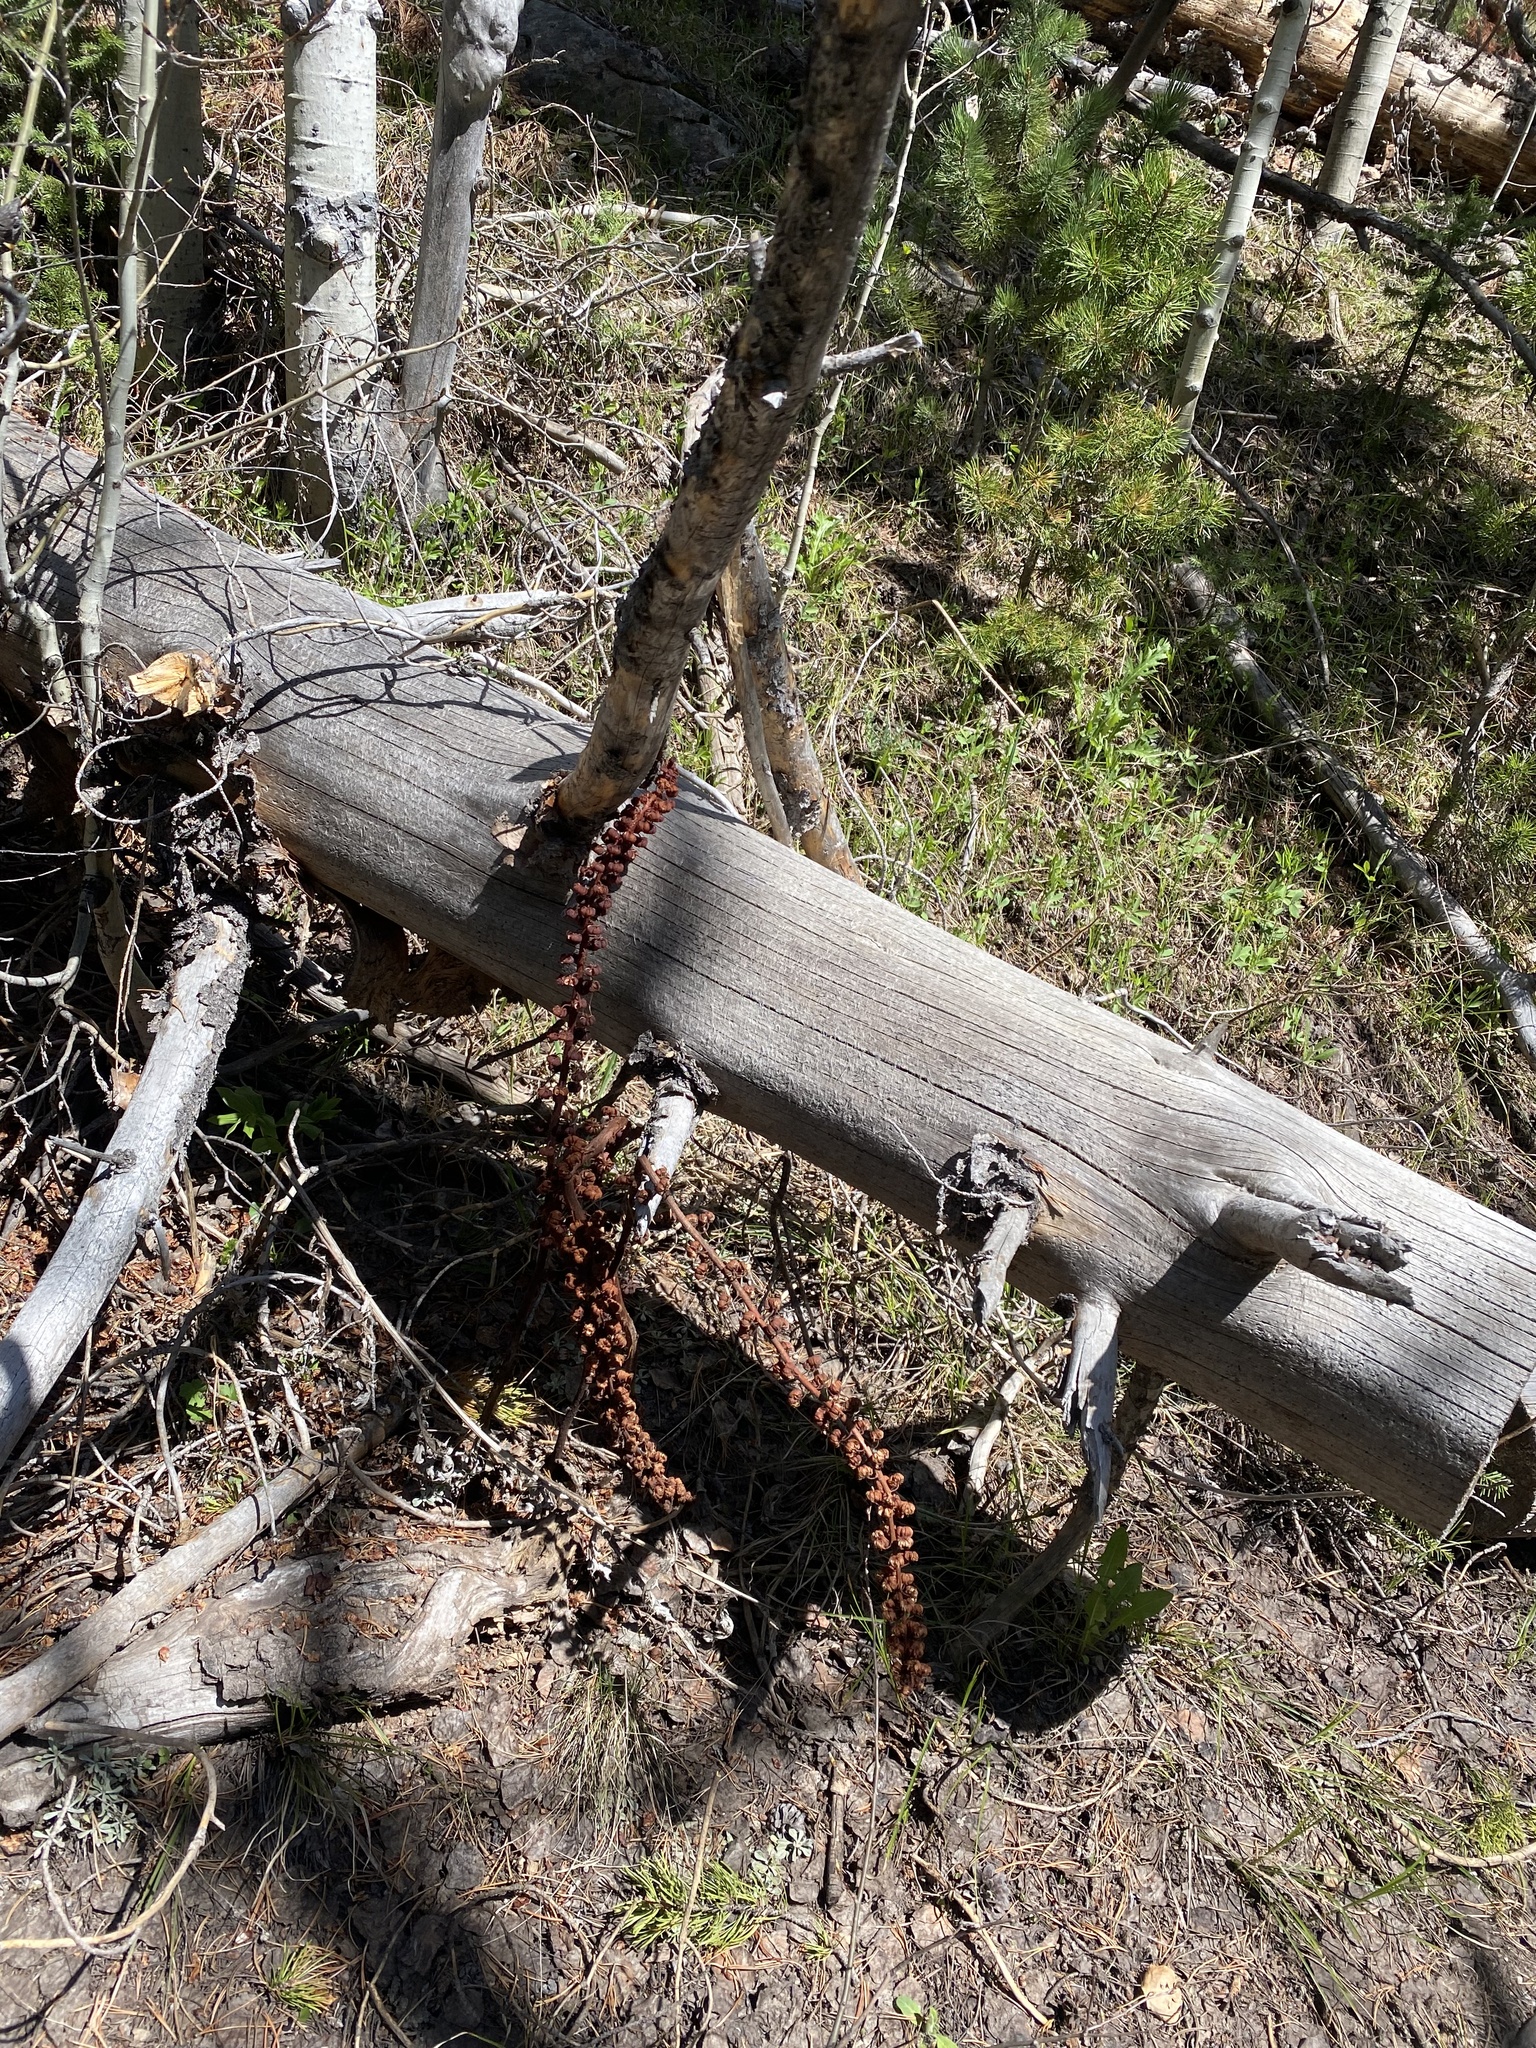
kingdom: Plantae
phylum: Tracheophyta
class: Magnoliopsida
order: Ericales
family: Ericaceae
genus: Pterospora
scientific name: Pterospora andromedea
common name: Giant bird's-nest
